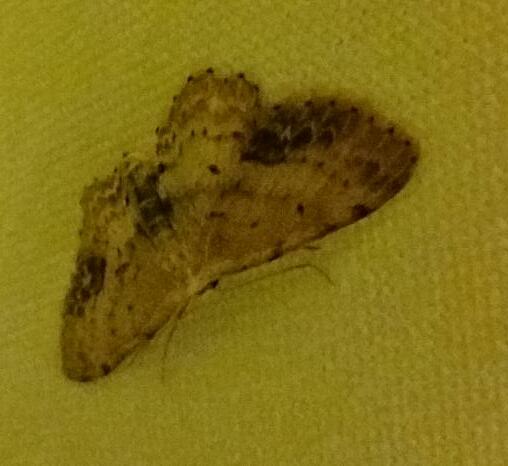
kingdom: Animalia
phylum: Arthropoda
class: Insecta
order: Lepidoptera
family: Geometridae
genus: Idaea
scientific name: Idaea dimidiata
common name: Single-dotted wave
